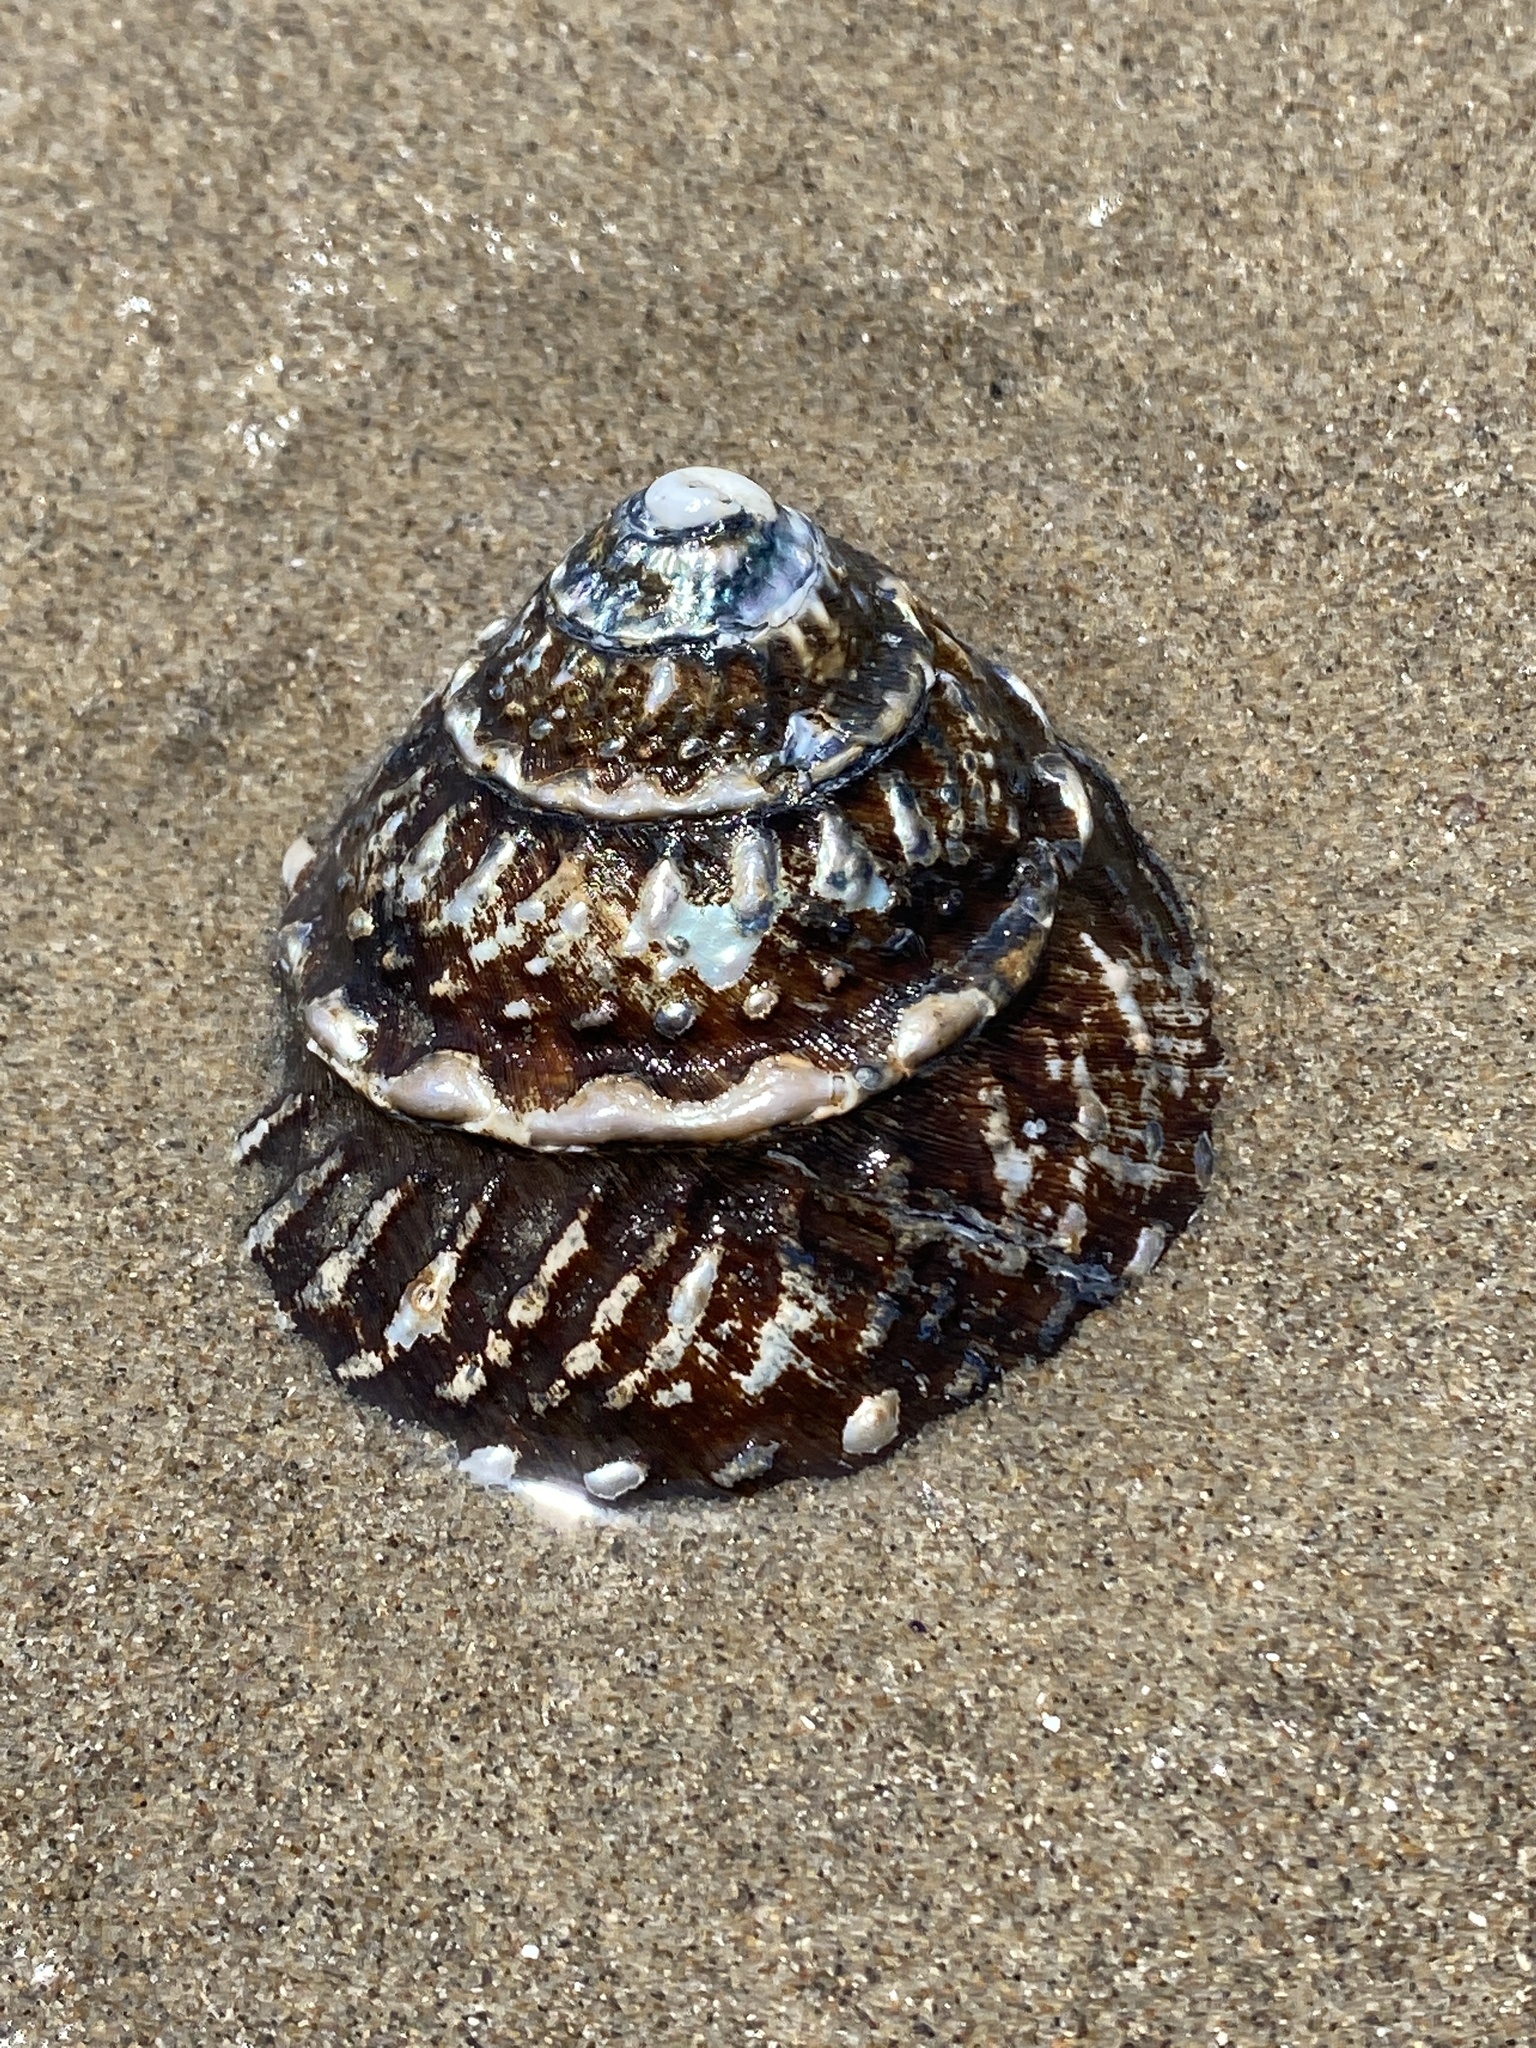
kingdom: Animalia
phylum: Mollusca
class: Gastropoda
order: Trochida
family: Turbinidae
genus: Megastraea
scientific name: Megastraea undosa
